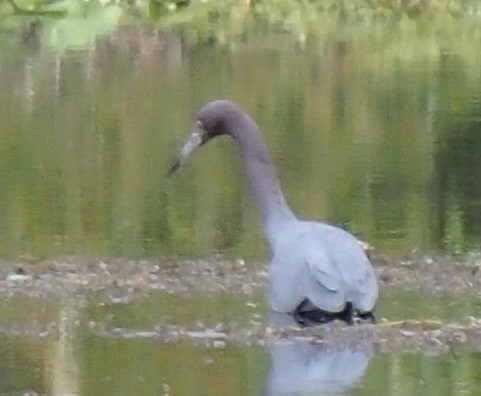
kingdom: Animalia
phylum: Chordata
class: Aves
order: Pelecaniformes
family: Ardeidae
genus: Egretta
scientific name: Egretta caerulea
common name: Little blue heron
